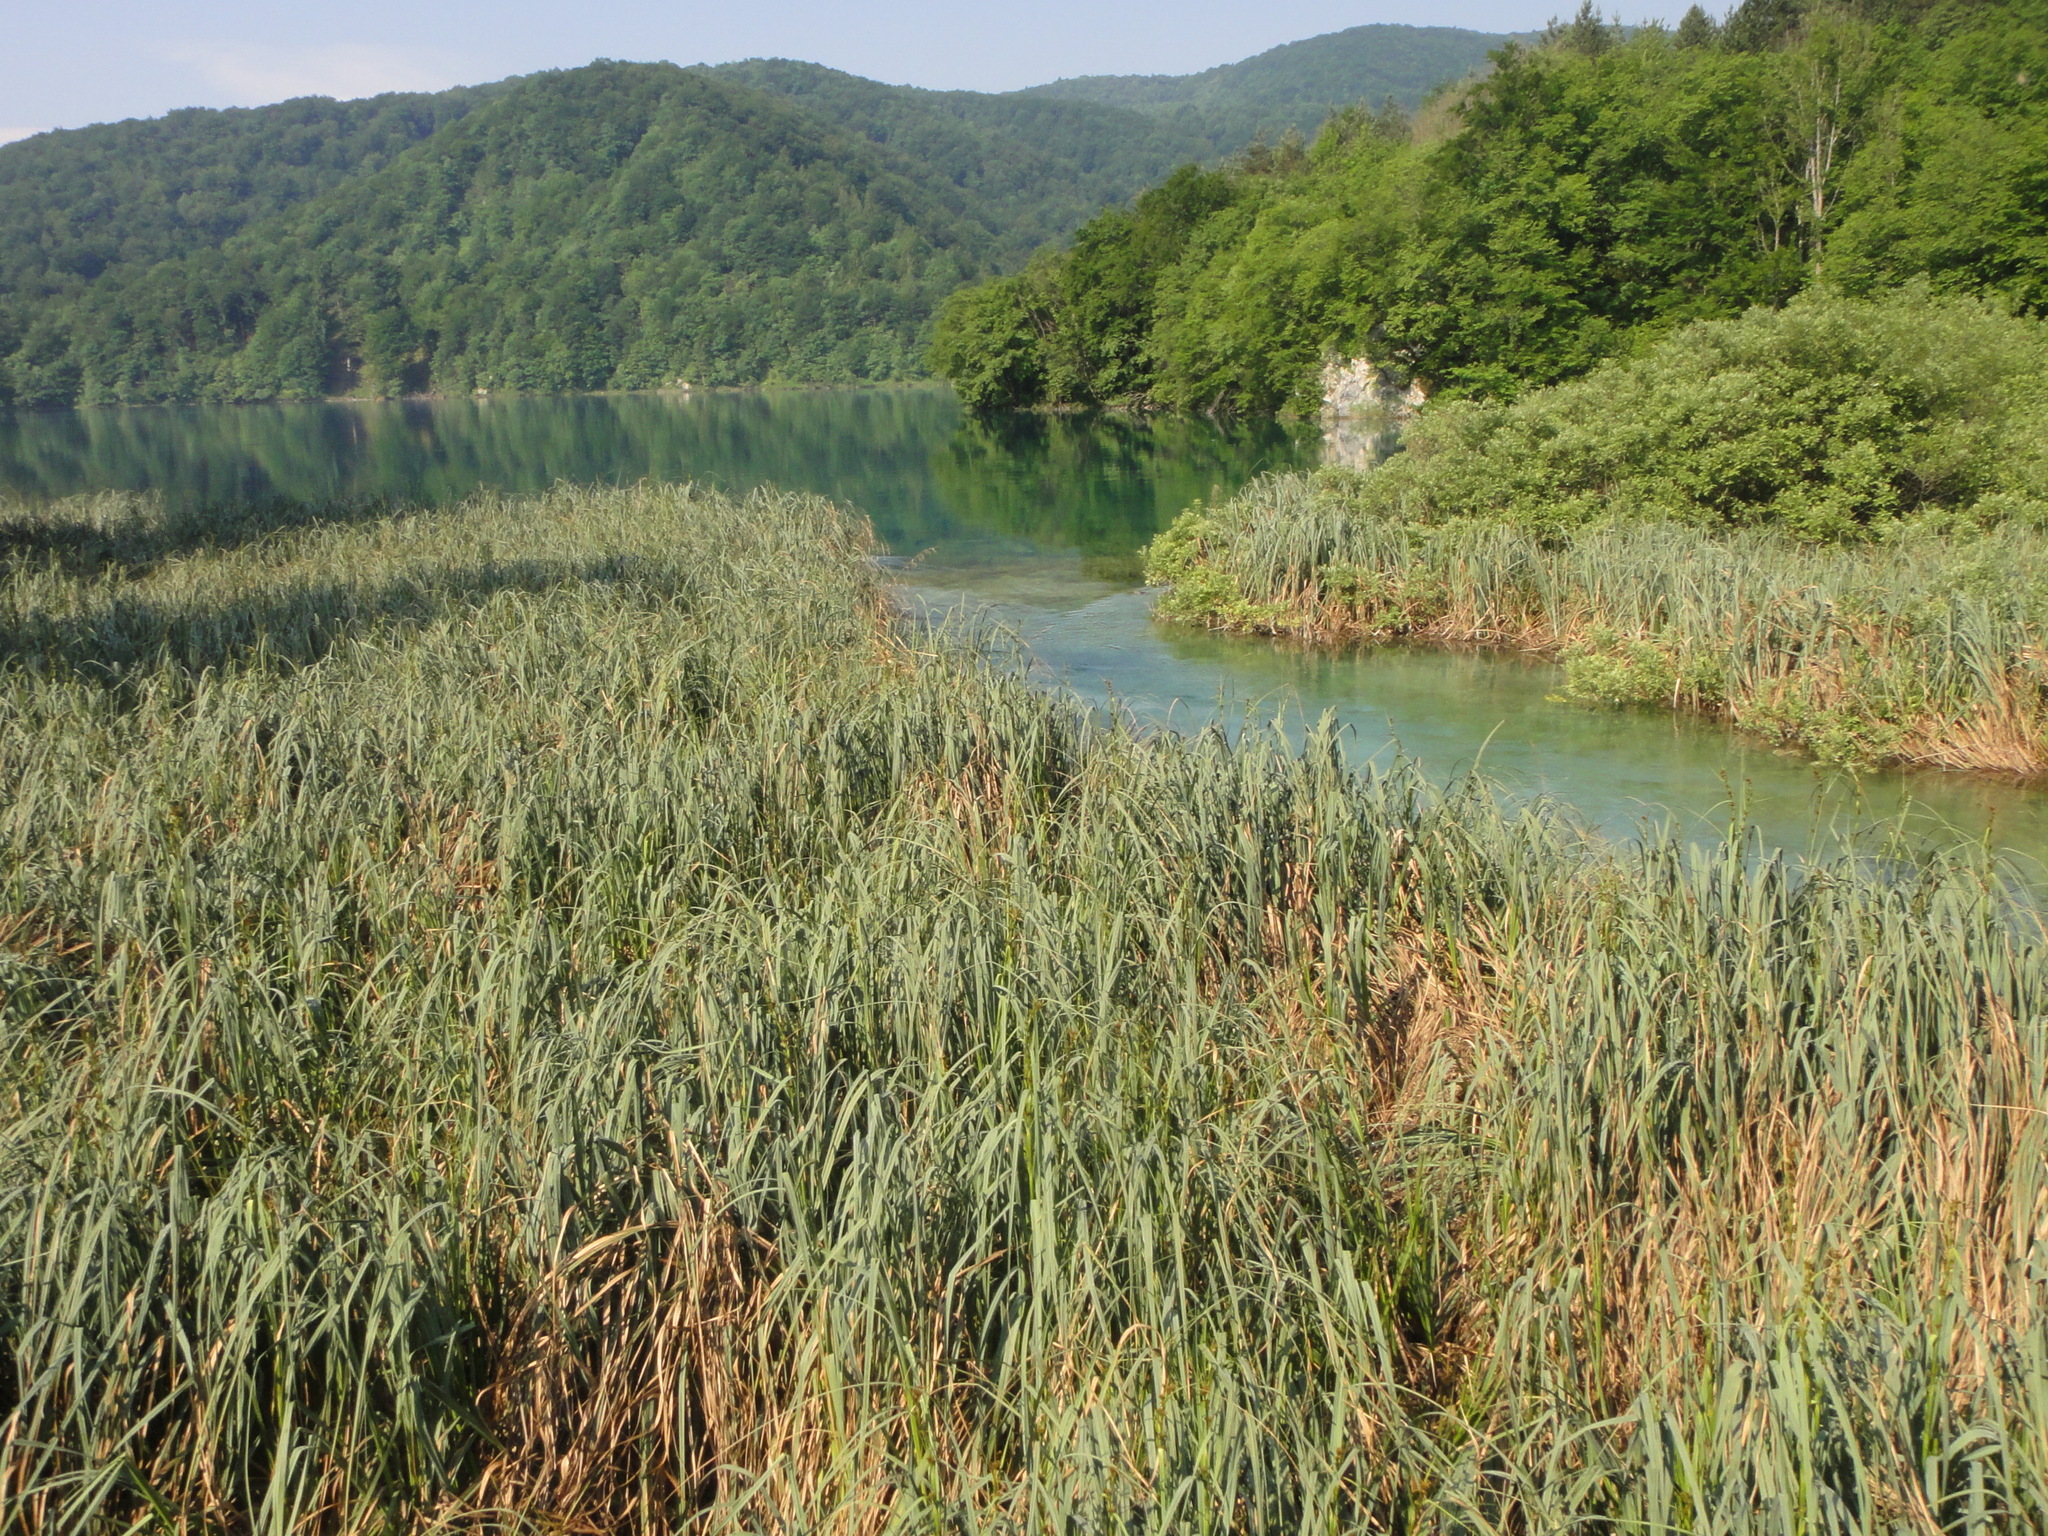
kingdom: Plantae
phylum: Tracheophyta
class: Liliopsida
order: Poales
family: Cyperaceae
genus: Cladium
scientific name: Cladium mariscus
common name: Great fen-sedge
